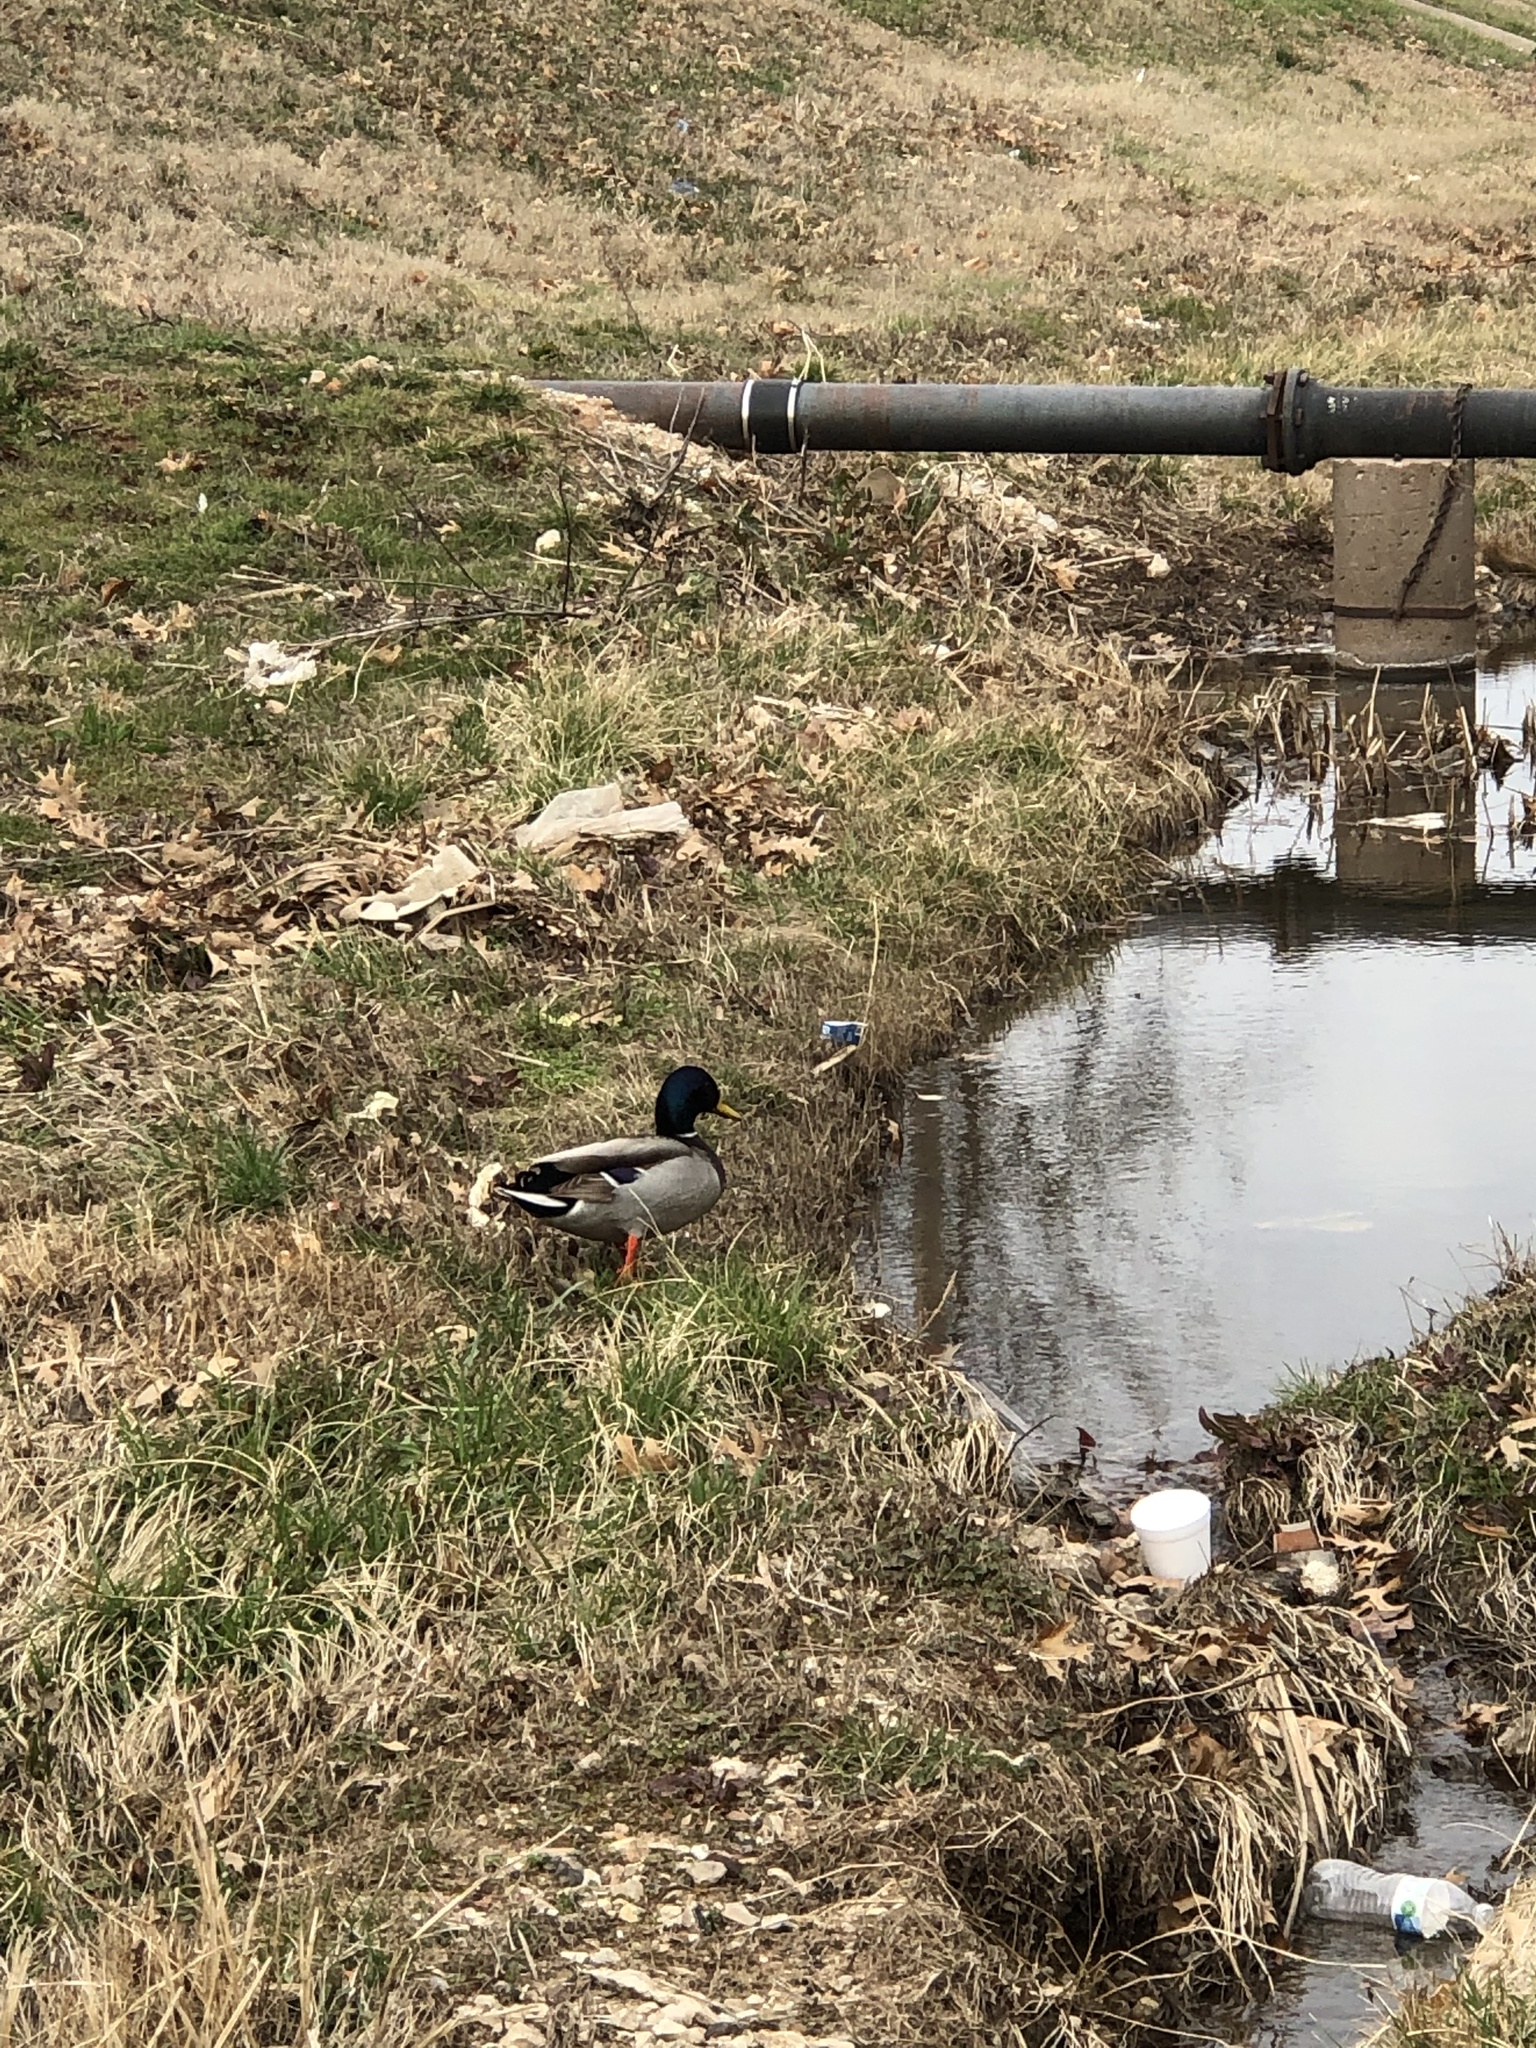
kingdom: Animalia
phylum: Chordata
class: Aves
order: Anseriformes
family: Anatidae
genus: Anas
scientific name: Anas platyrhynchos
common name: Mallard
